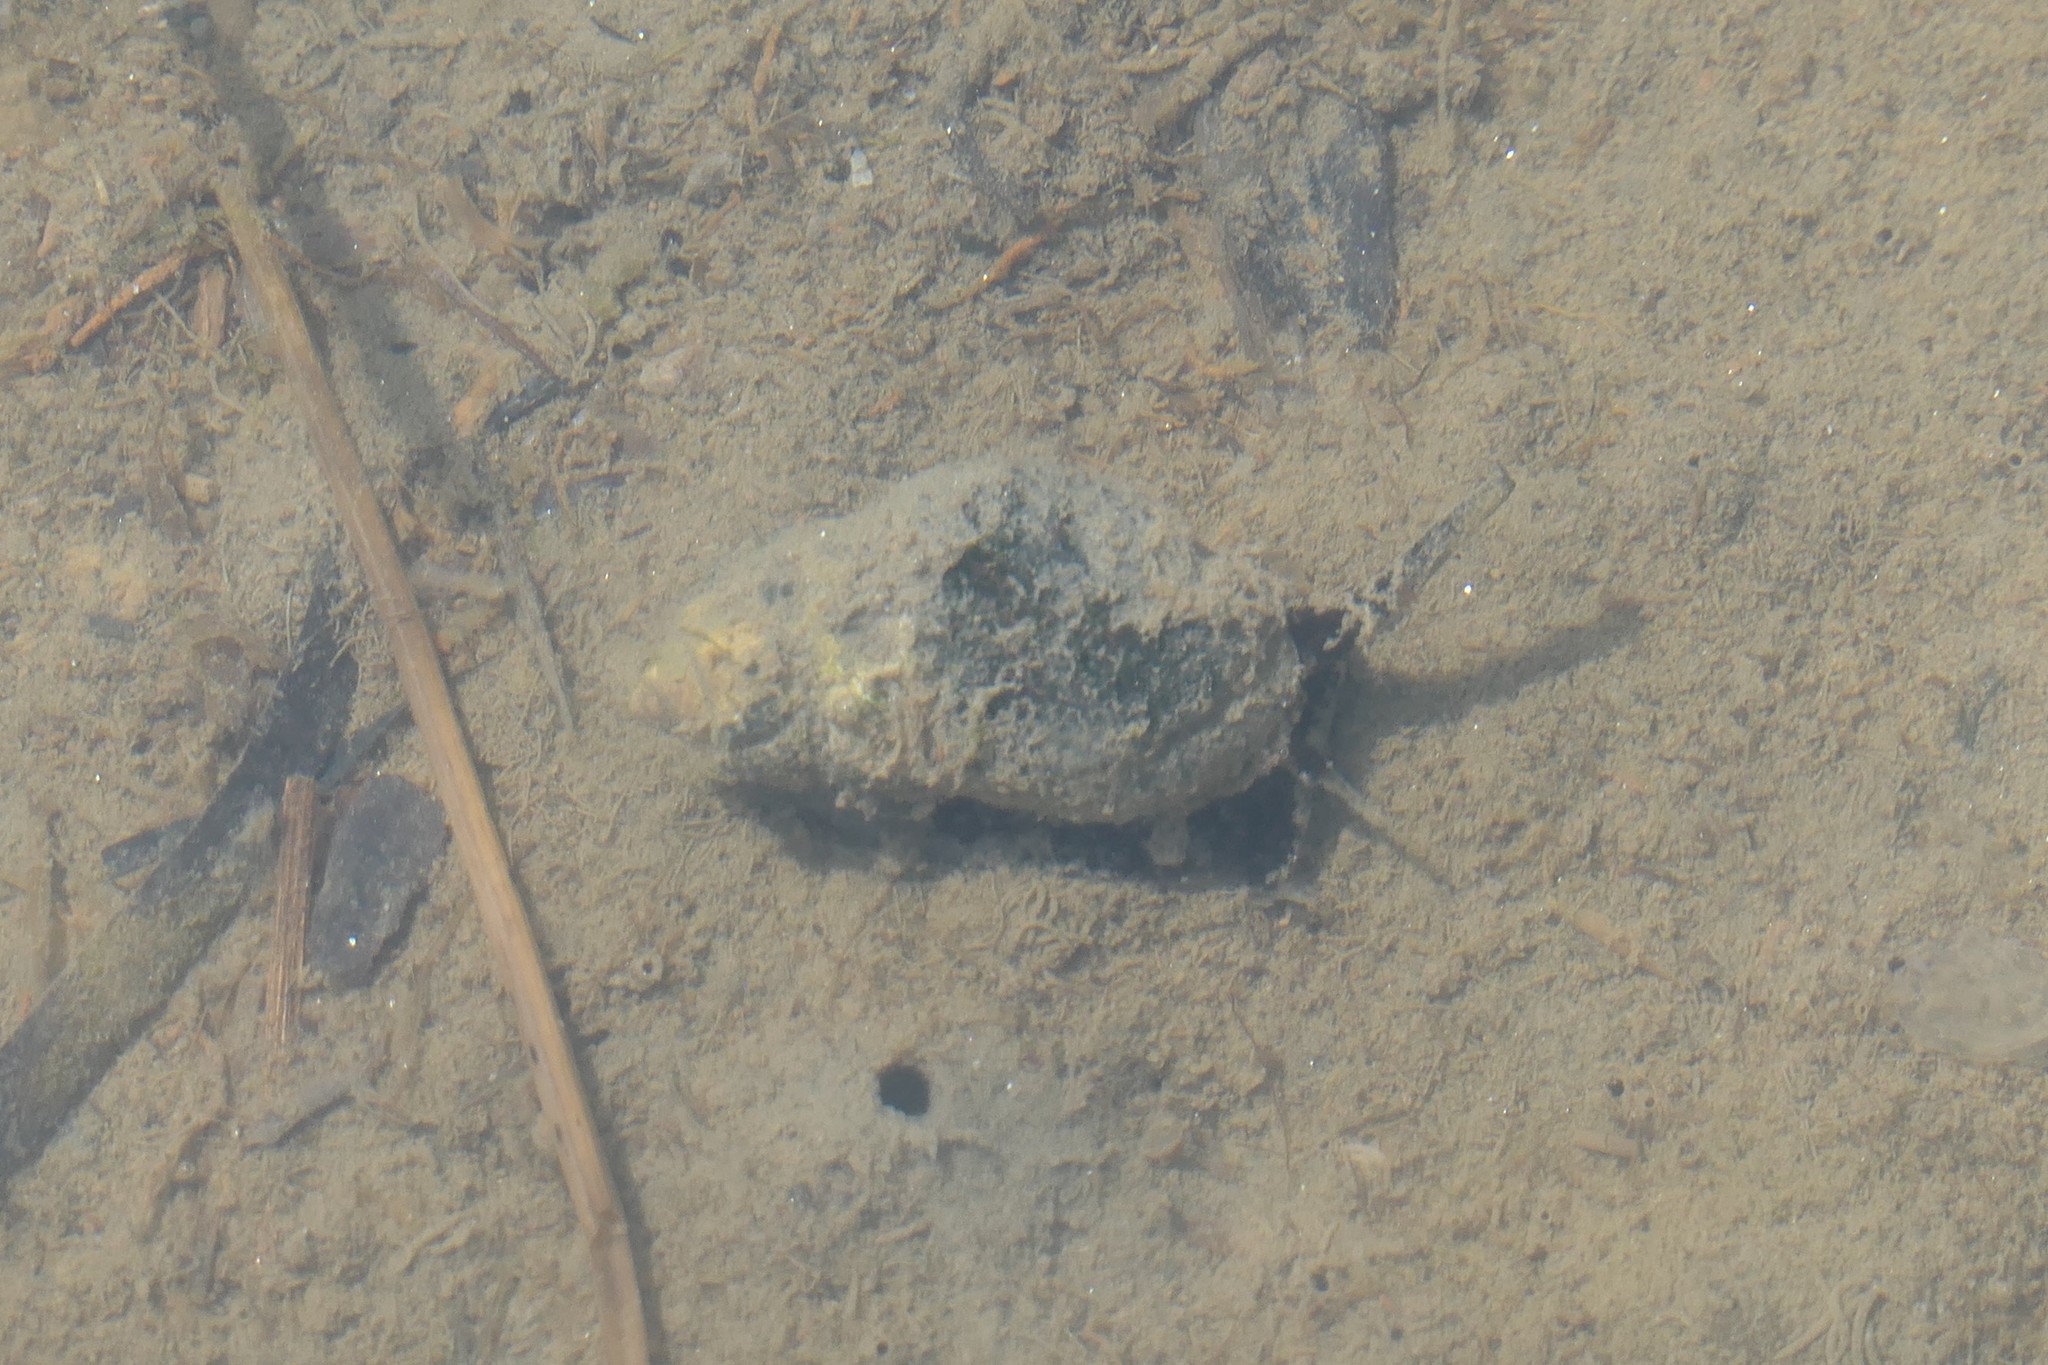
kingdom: Animalia
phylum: Mollusca
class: Gastropoda
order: Neogastropoda
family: Nassariidae
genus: Ilyanassa
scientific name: Ilyanassa obsoleta
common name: Eastern mudsnail
